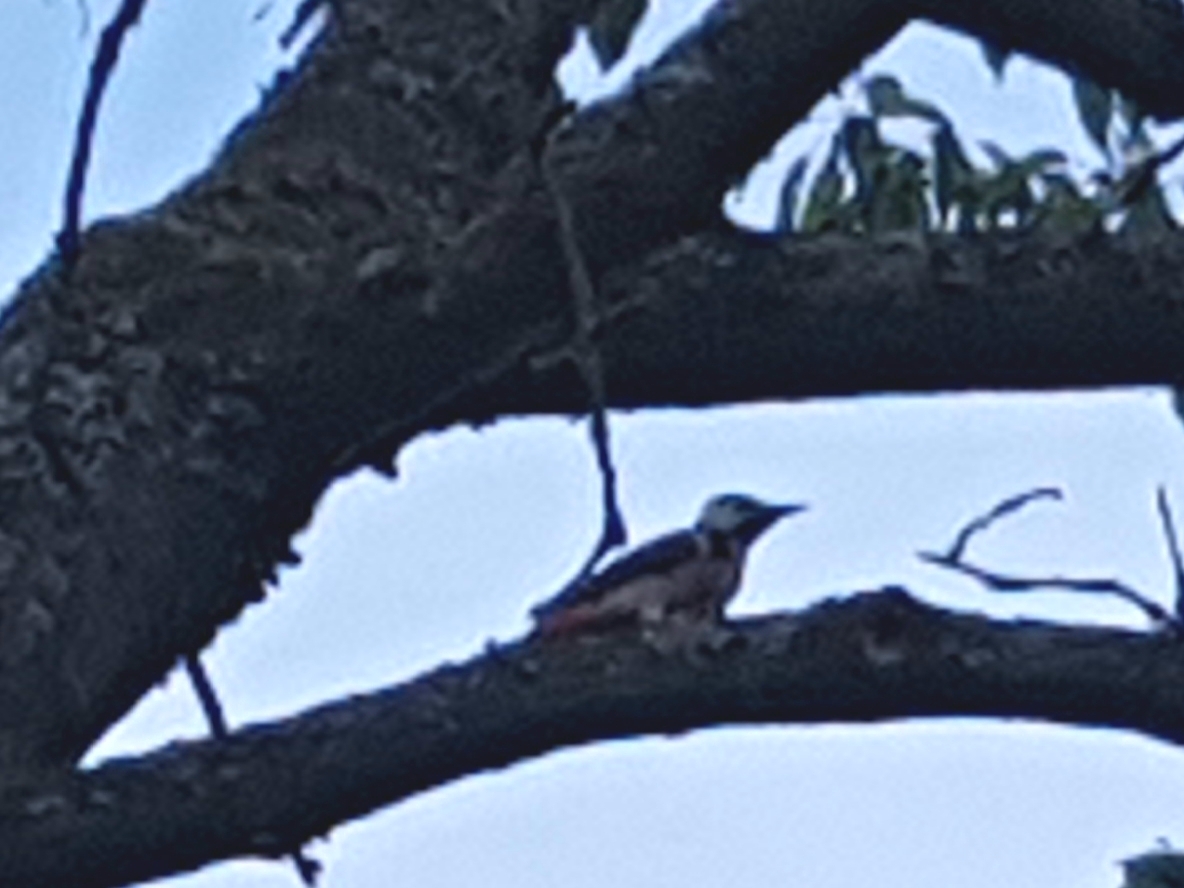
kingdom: Animalia
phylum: Chordata
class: Aves
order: Piciformes
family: Picidae
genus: Dendrocopos
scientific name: Dendrocopos major
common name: Great spotted woodpecker
